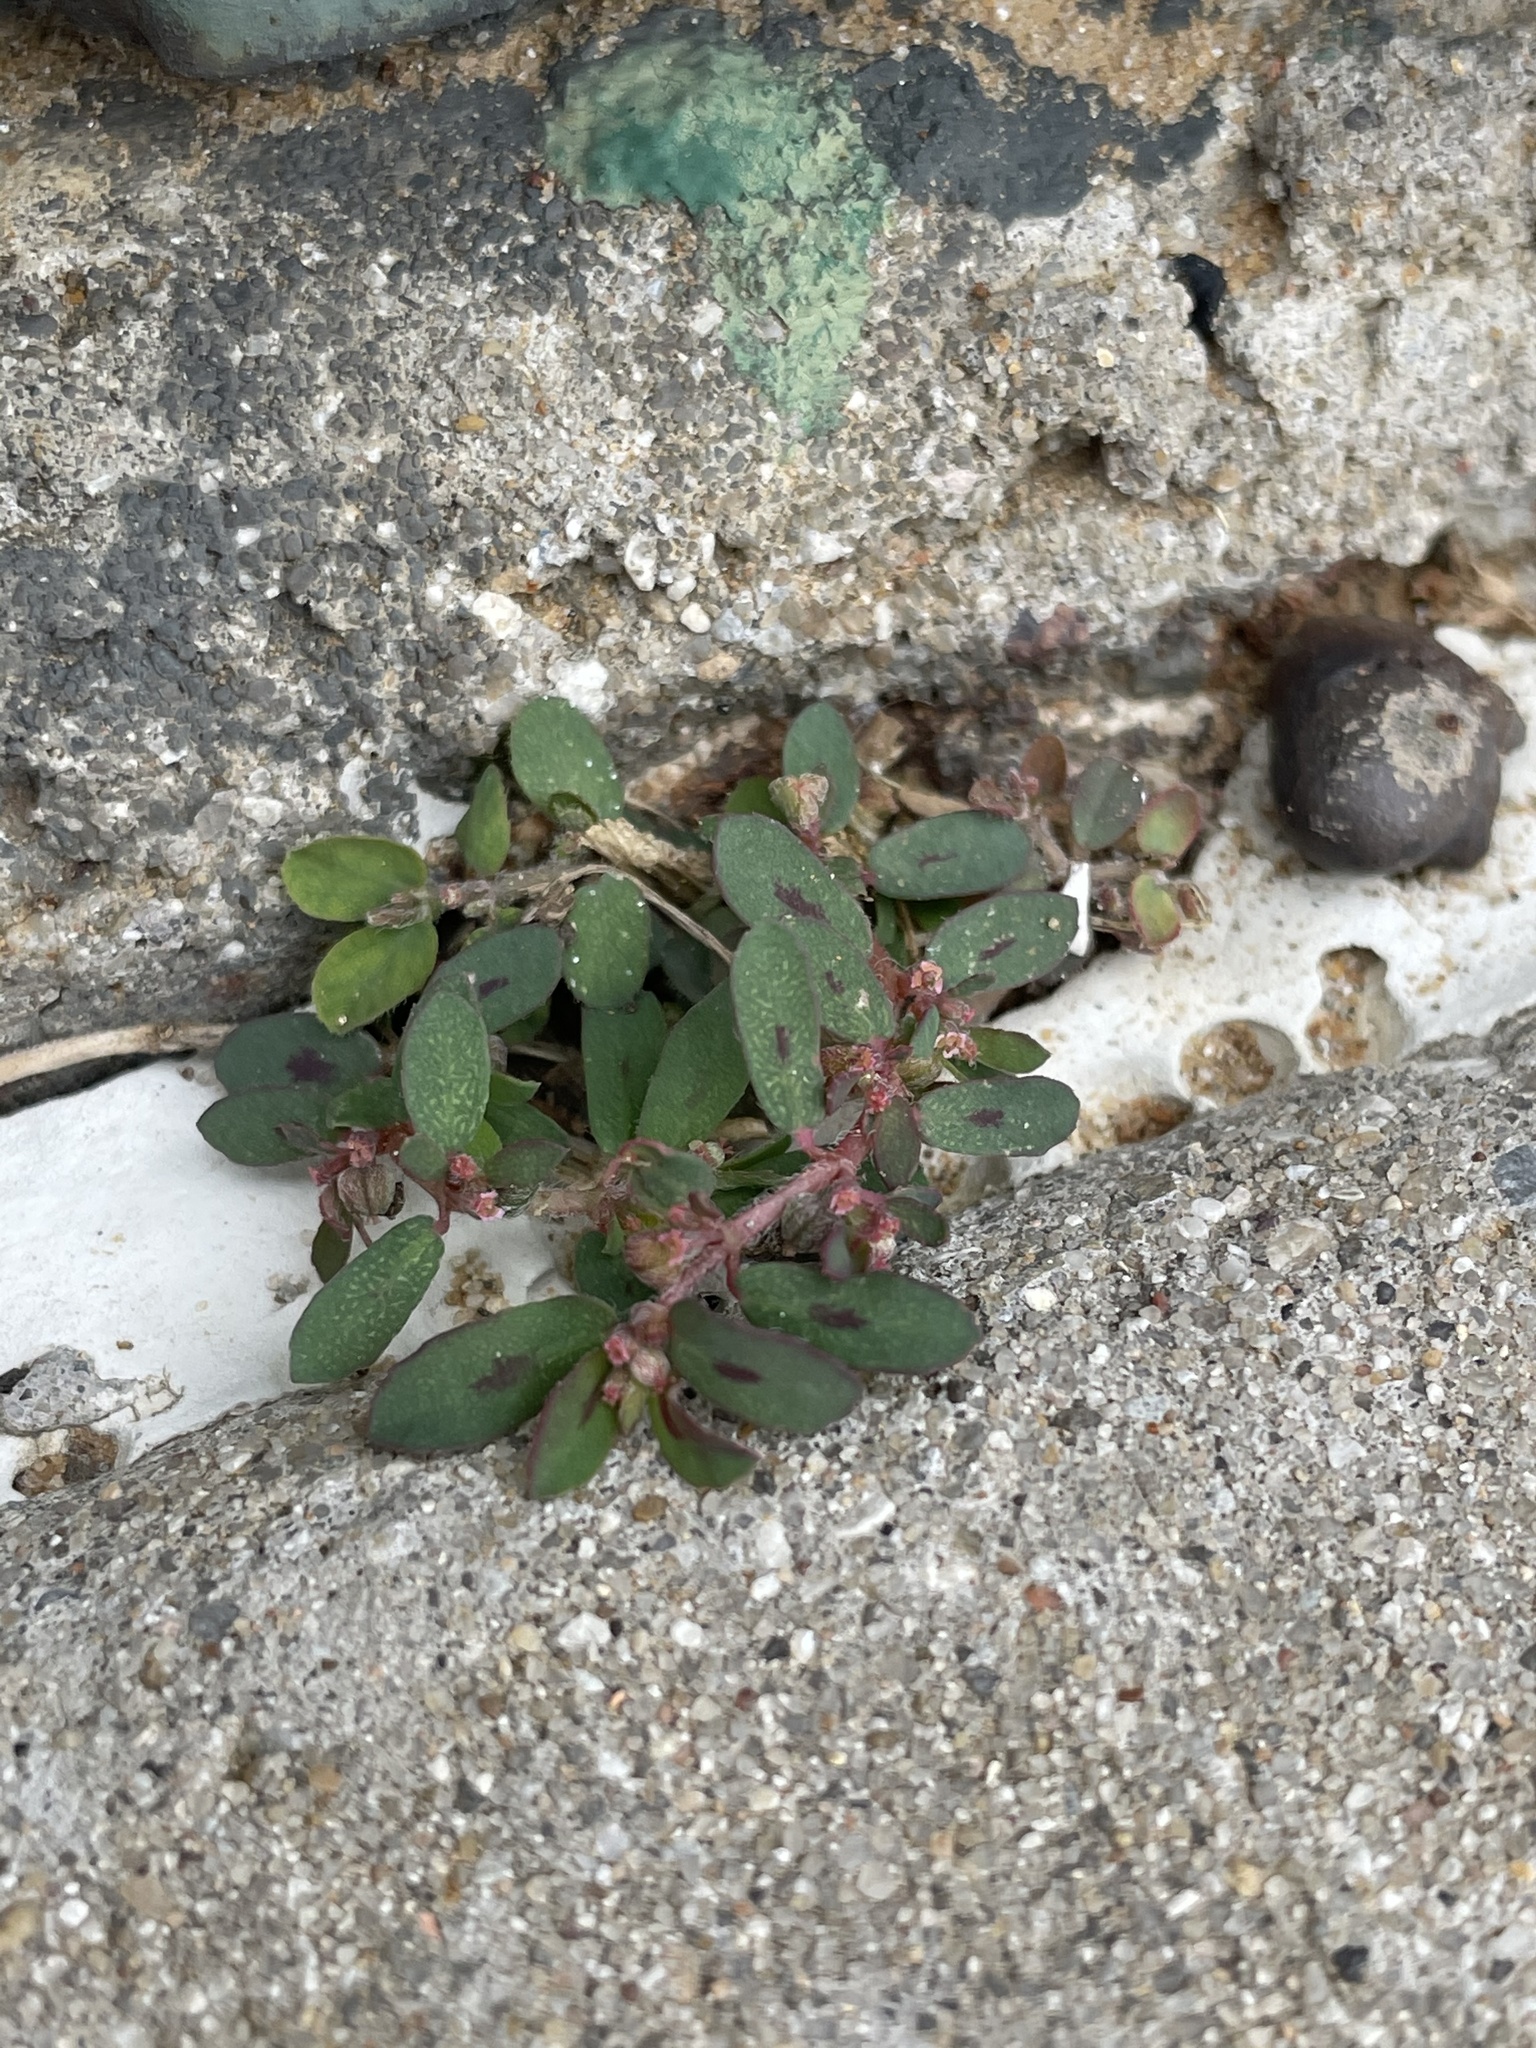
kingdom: Plantae
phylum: Tracheophyta
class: Magnoliopsida
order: Malpighiales
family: Euphorbiaceae
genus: Euphorbia
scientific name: Euphorbia maculata
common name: Spotted spurge
